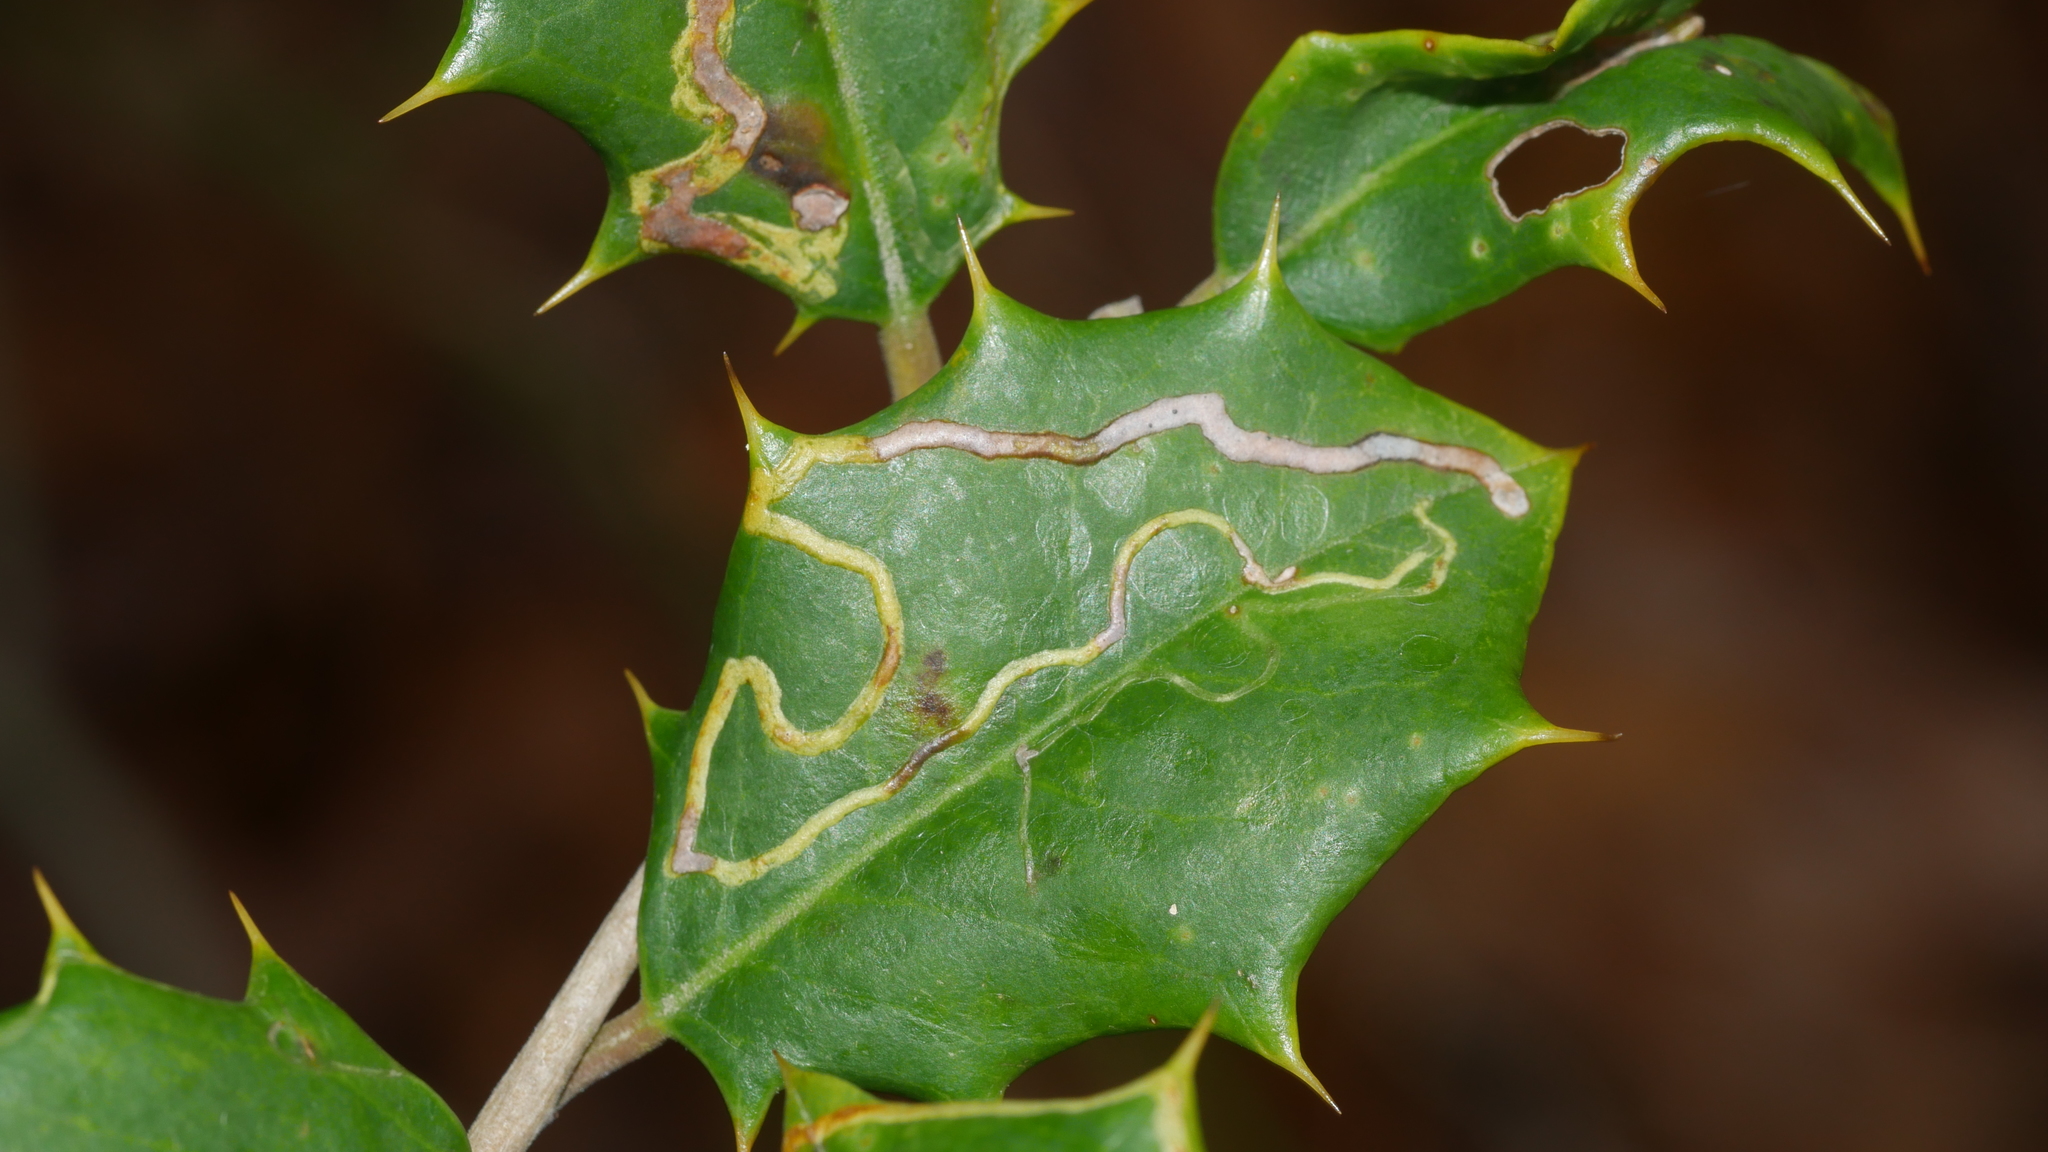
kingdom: Animalia
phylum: Arthropoda
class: Insecta
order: Diptera
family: Agromyzidae
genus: Phytomyza
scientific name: Phytomyza opacae
